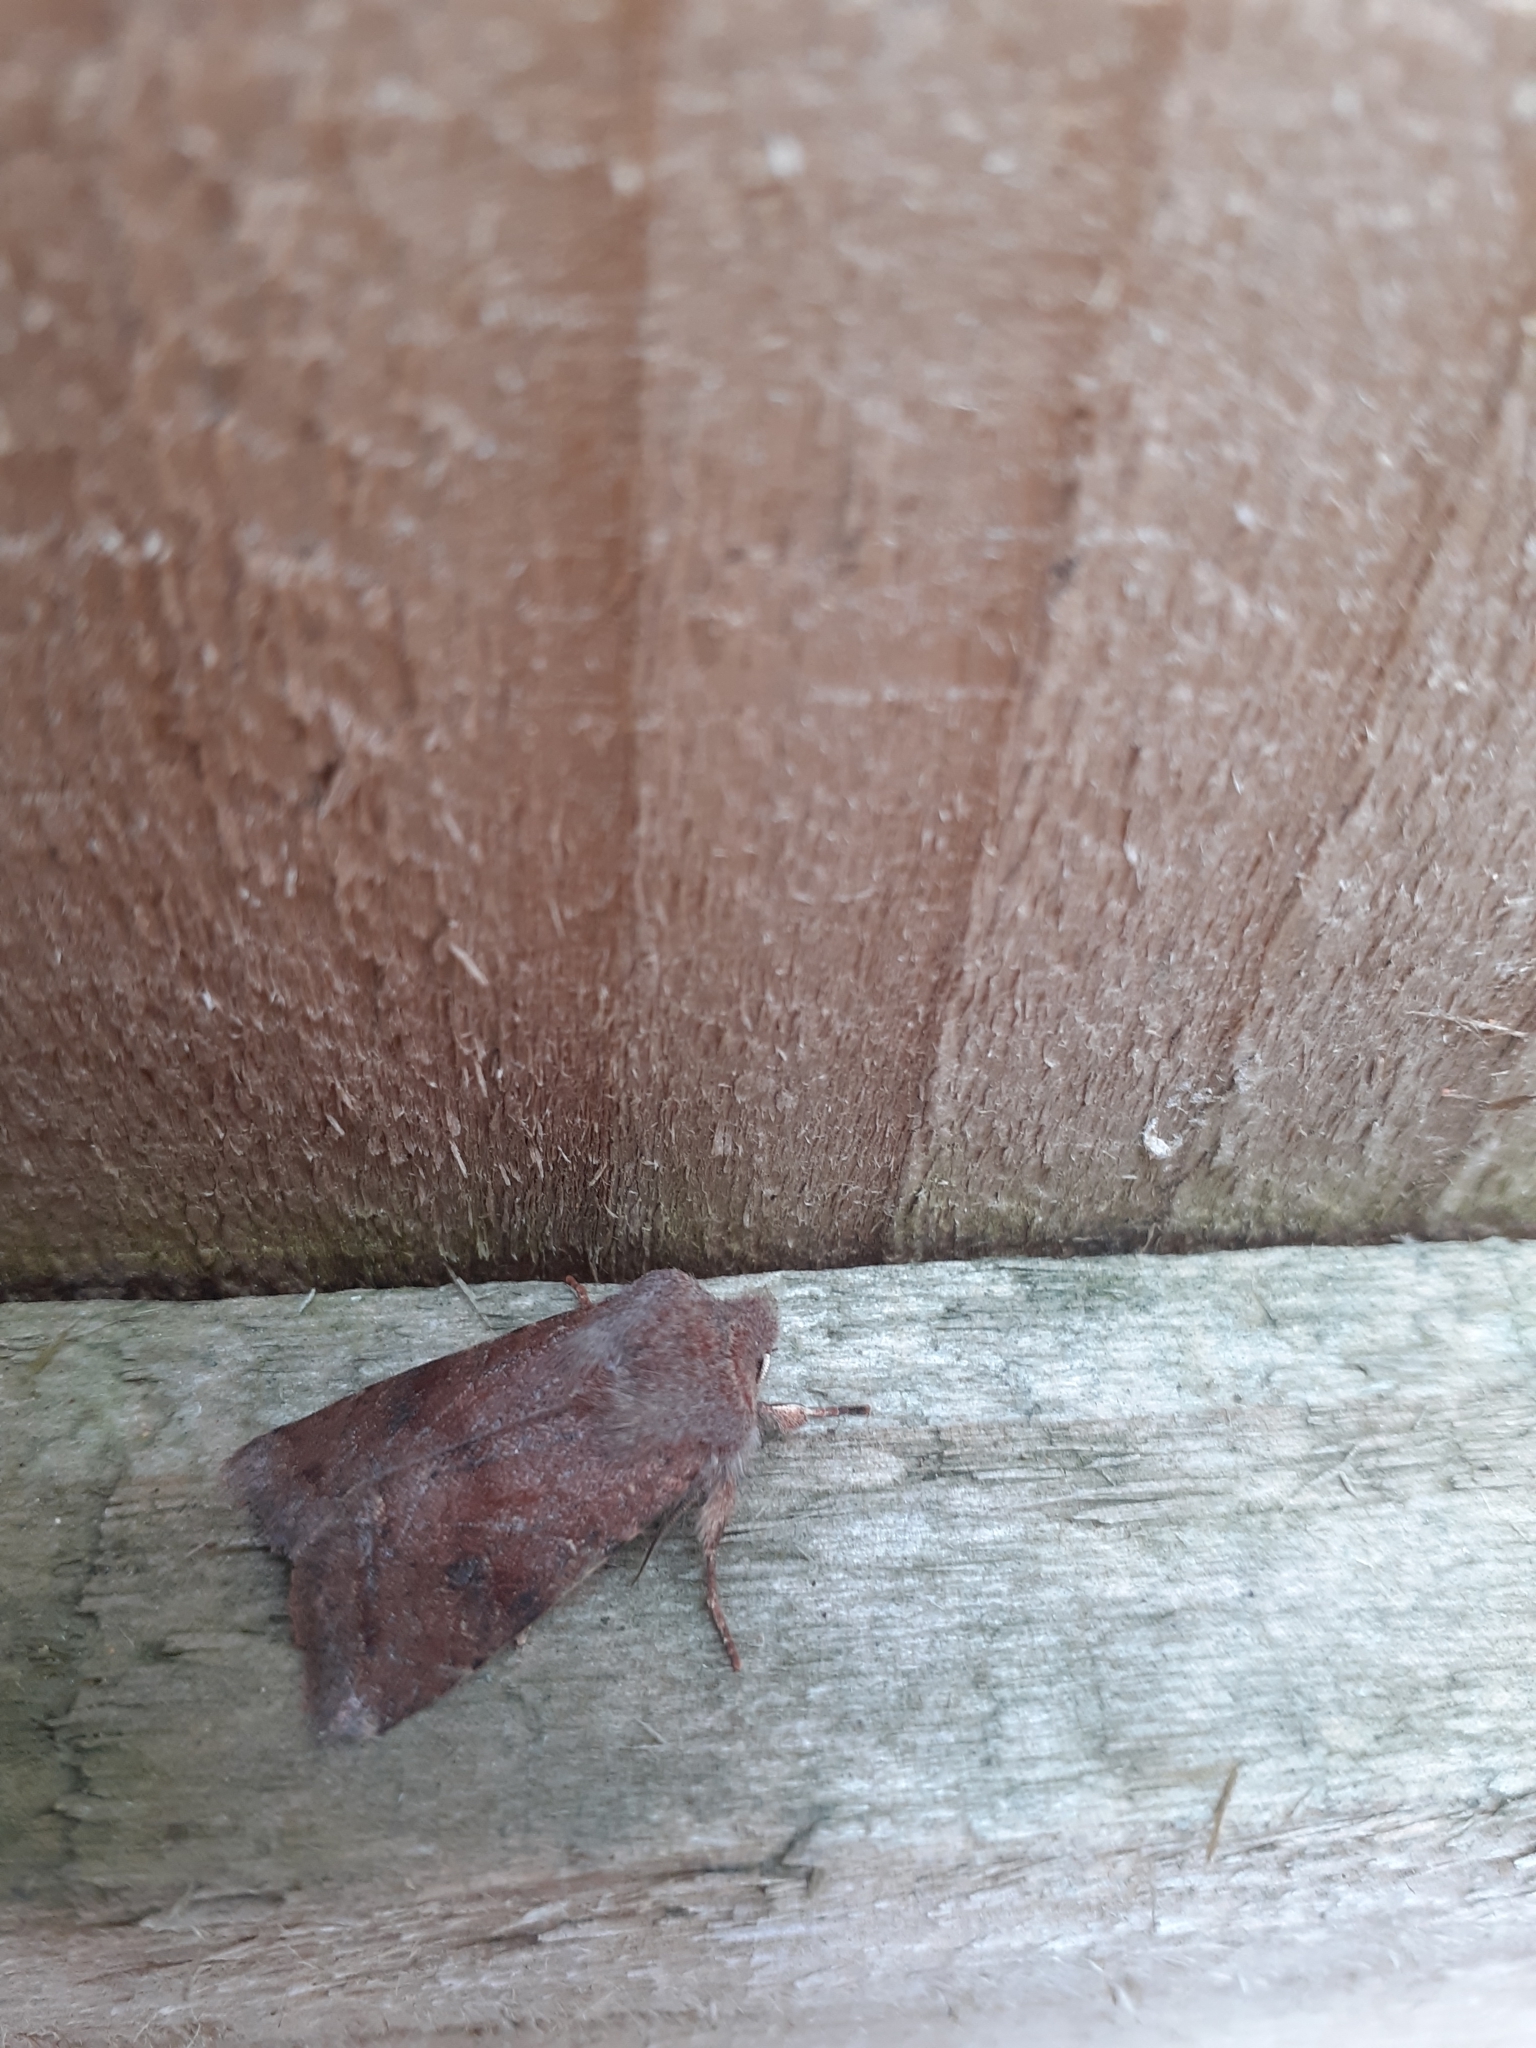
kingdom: Animalia
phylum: Arthropoda
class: Insecta
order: Lepidoptera
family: Noctuidae
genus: Orthosia
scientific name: Orthosia incerta
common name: Clouded drab
